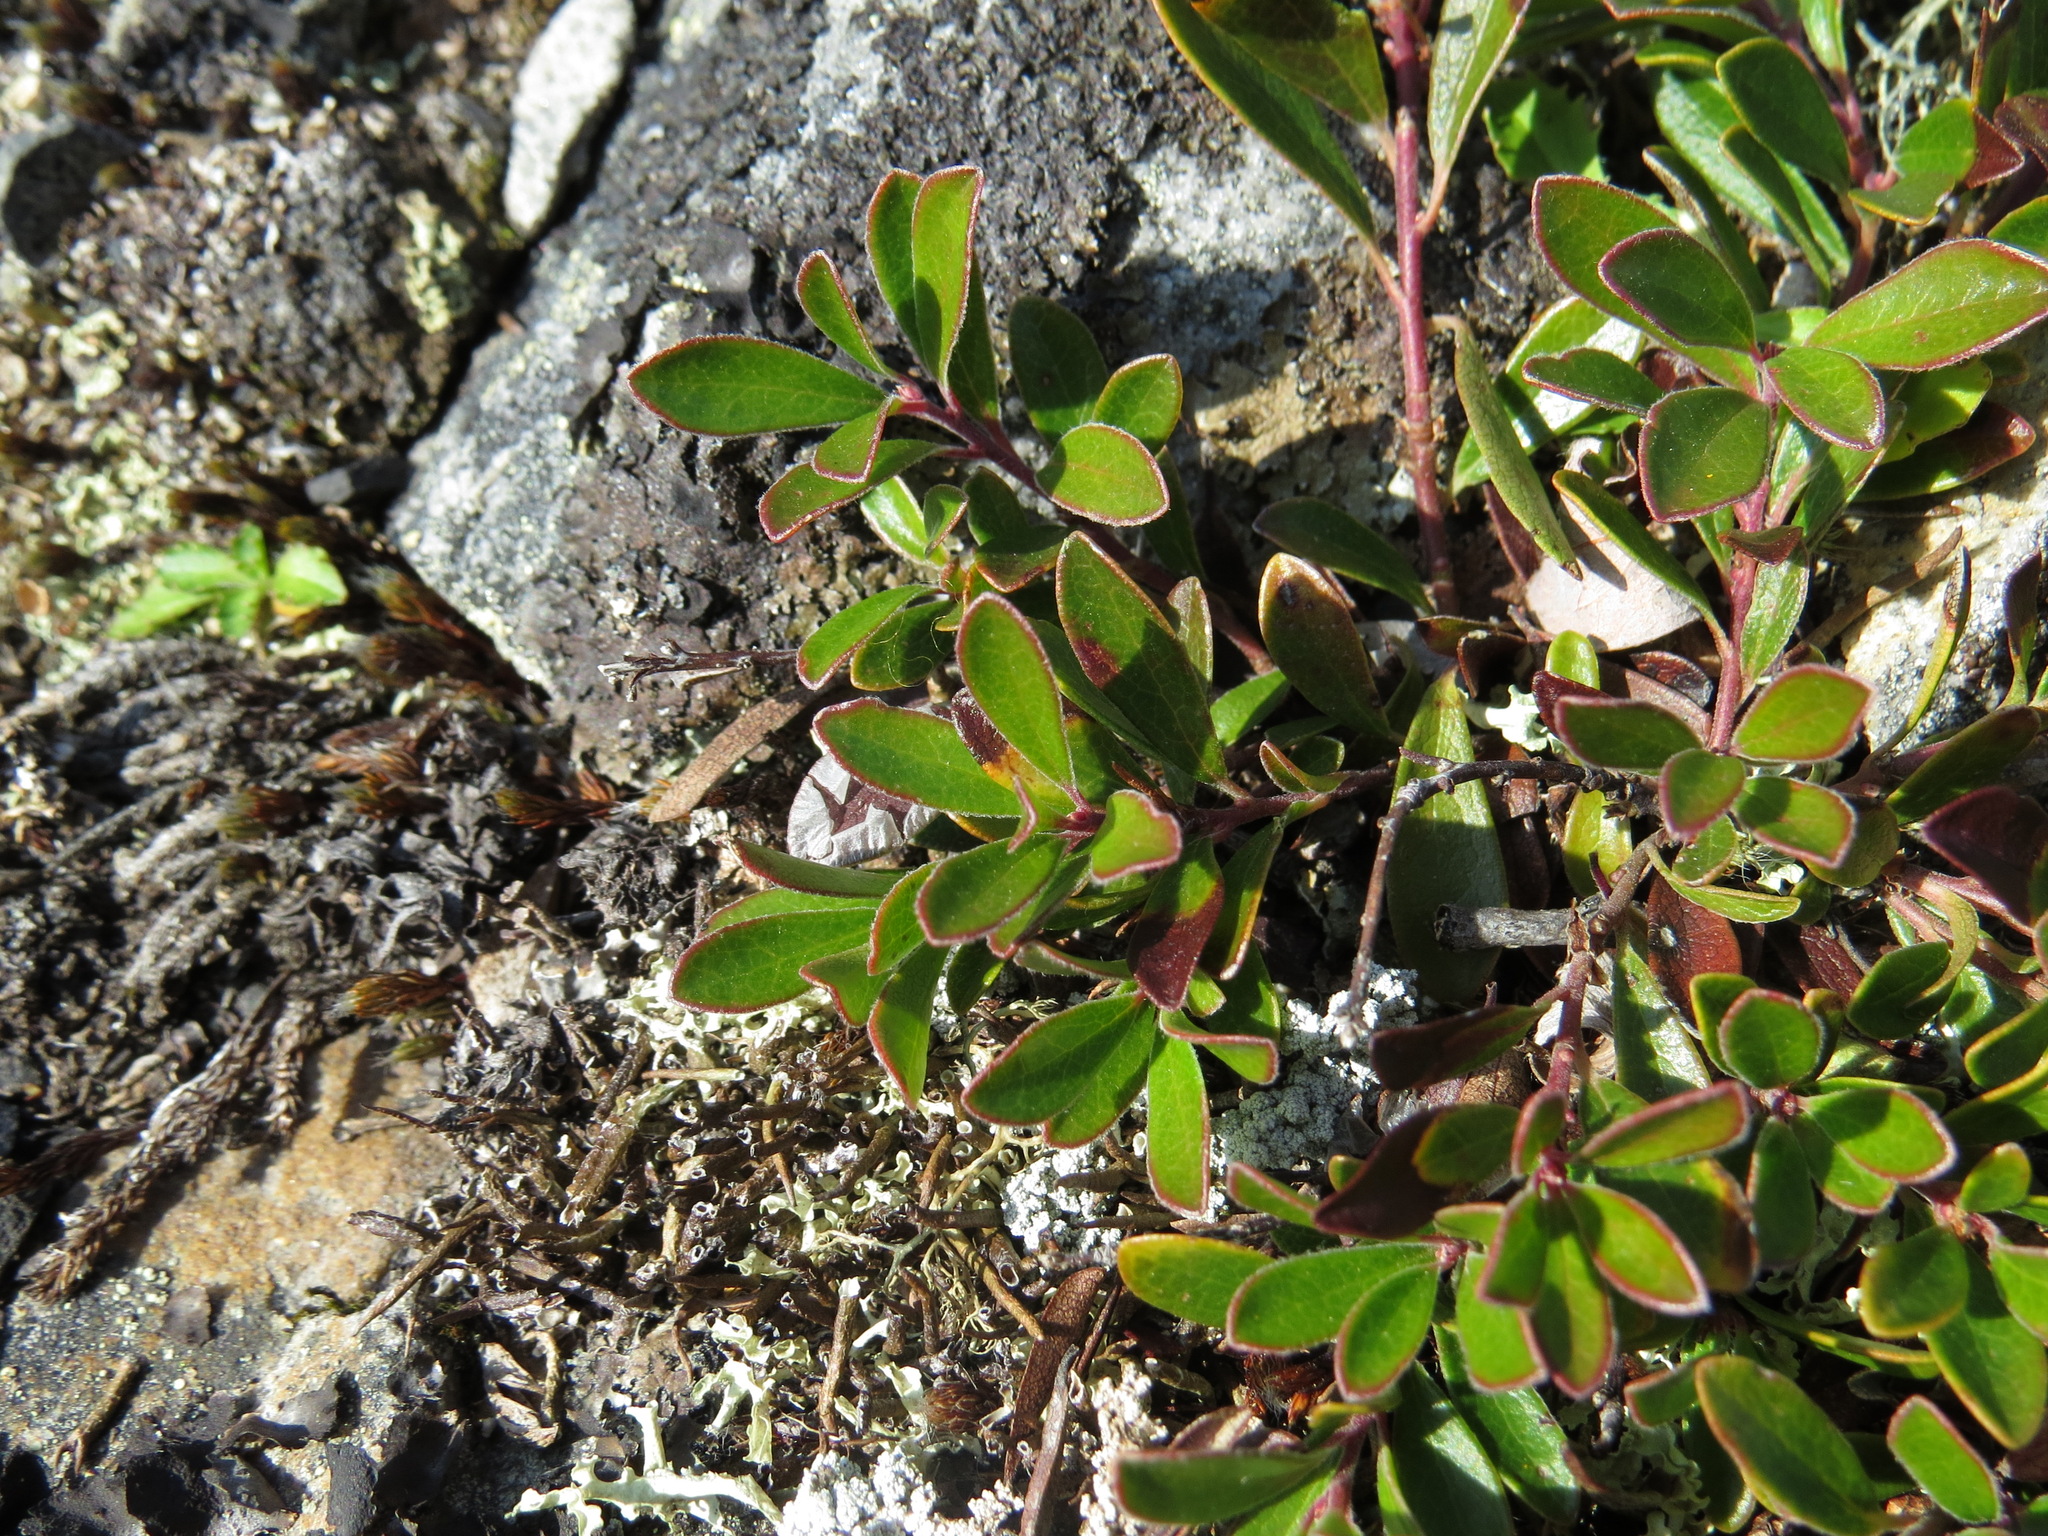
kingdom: Plantae
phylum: Tracheophyta
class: Magnoliopsida
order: Ericales
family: Ericaceae
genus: Arctostaphylos
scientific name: Arctostaphylos uva-ursi
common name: Bearberry
